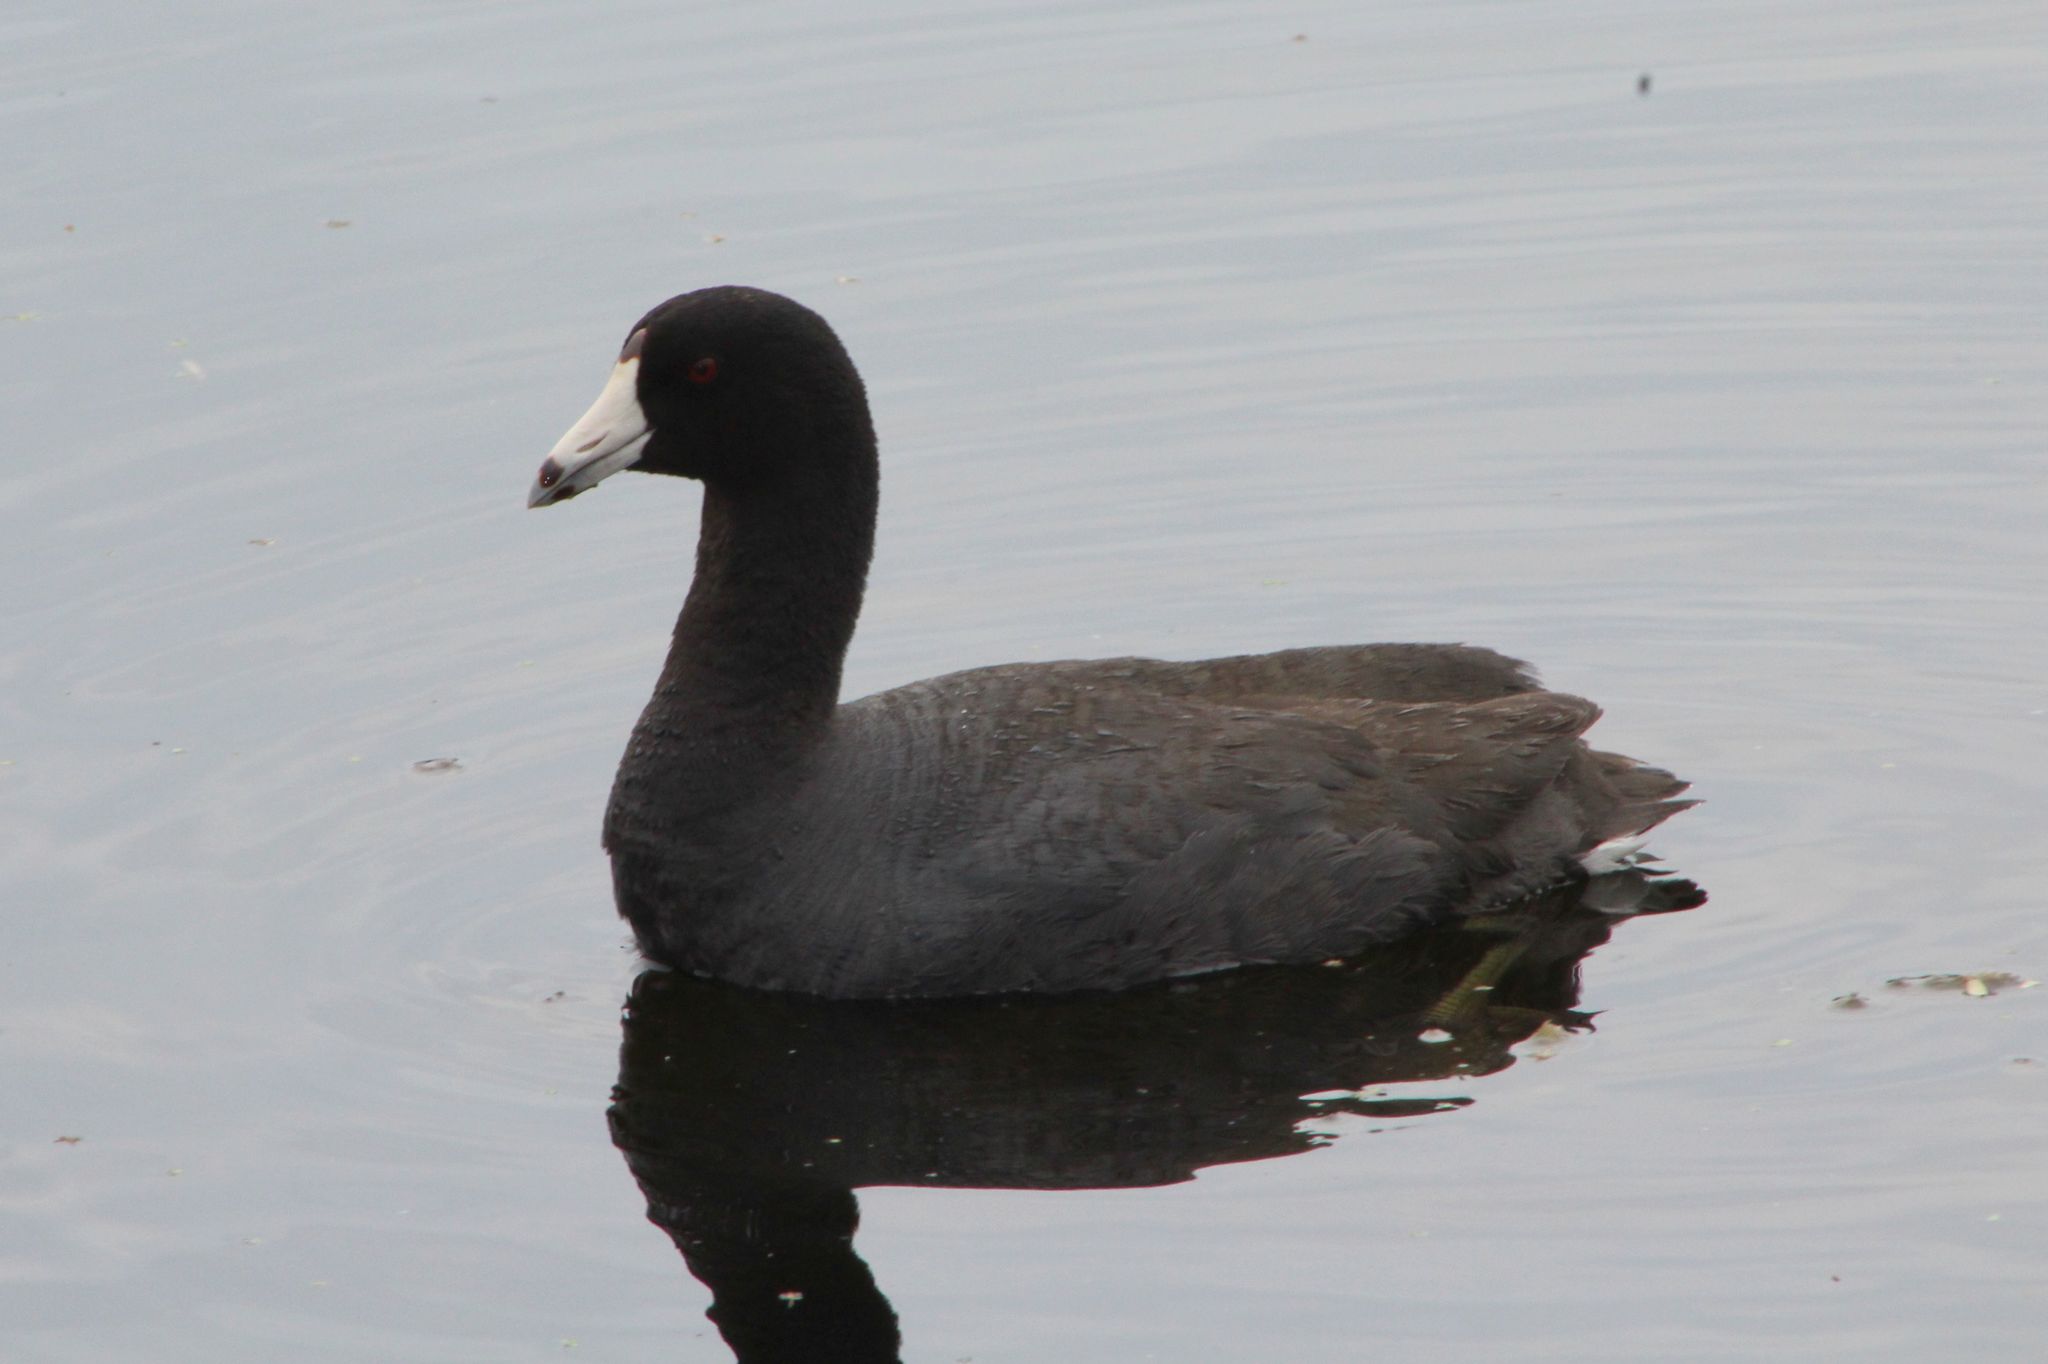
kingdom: Animalia
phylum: Chordata
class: Aves
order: Gruiformes
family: Rallidae
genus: Fulica
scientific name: Fulica americana
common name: American coot
